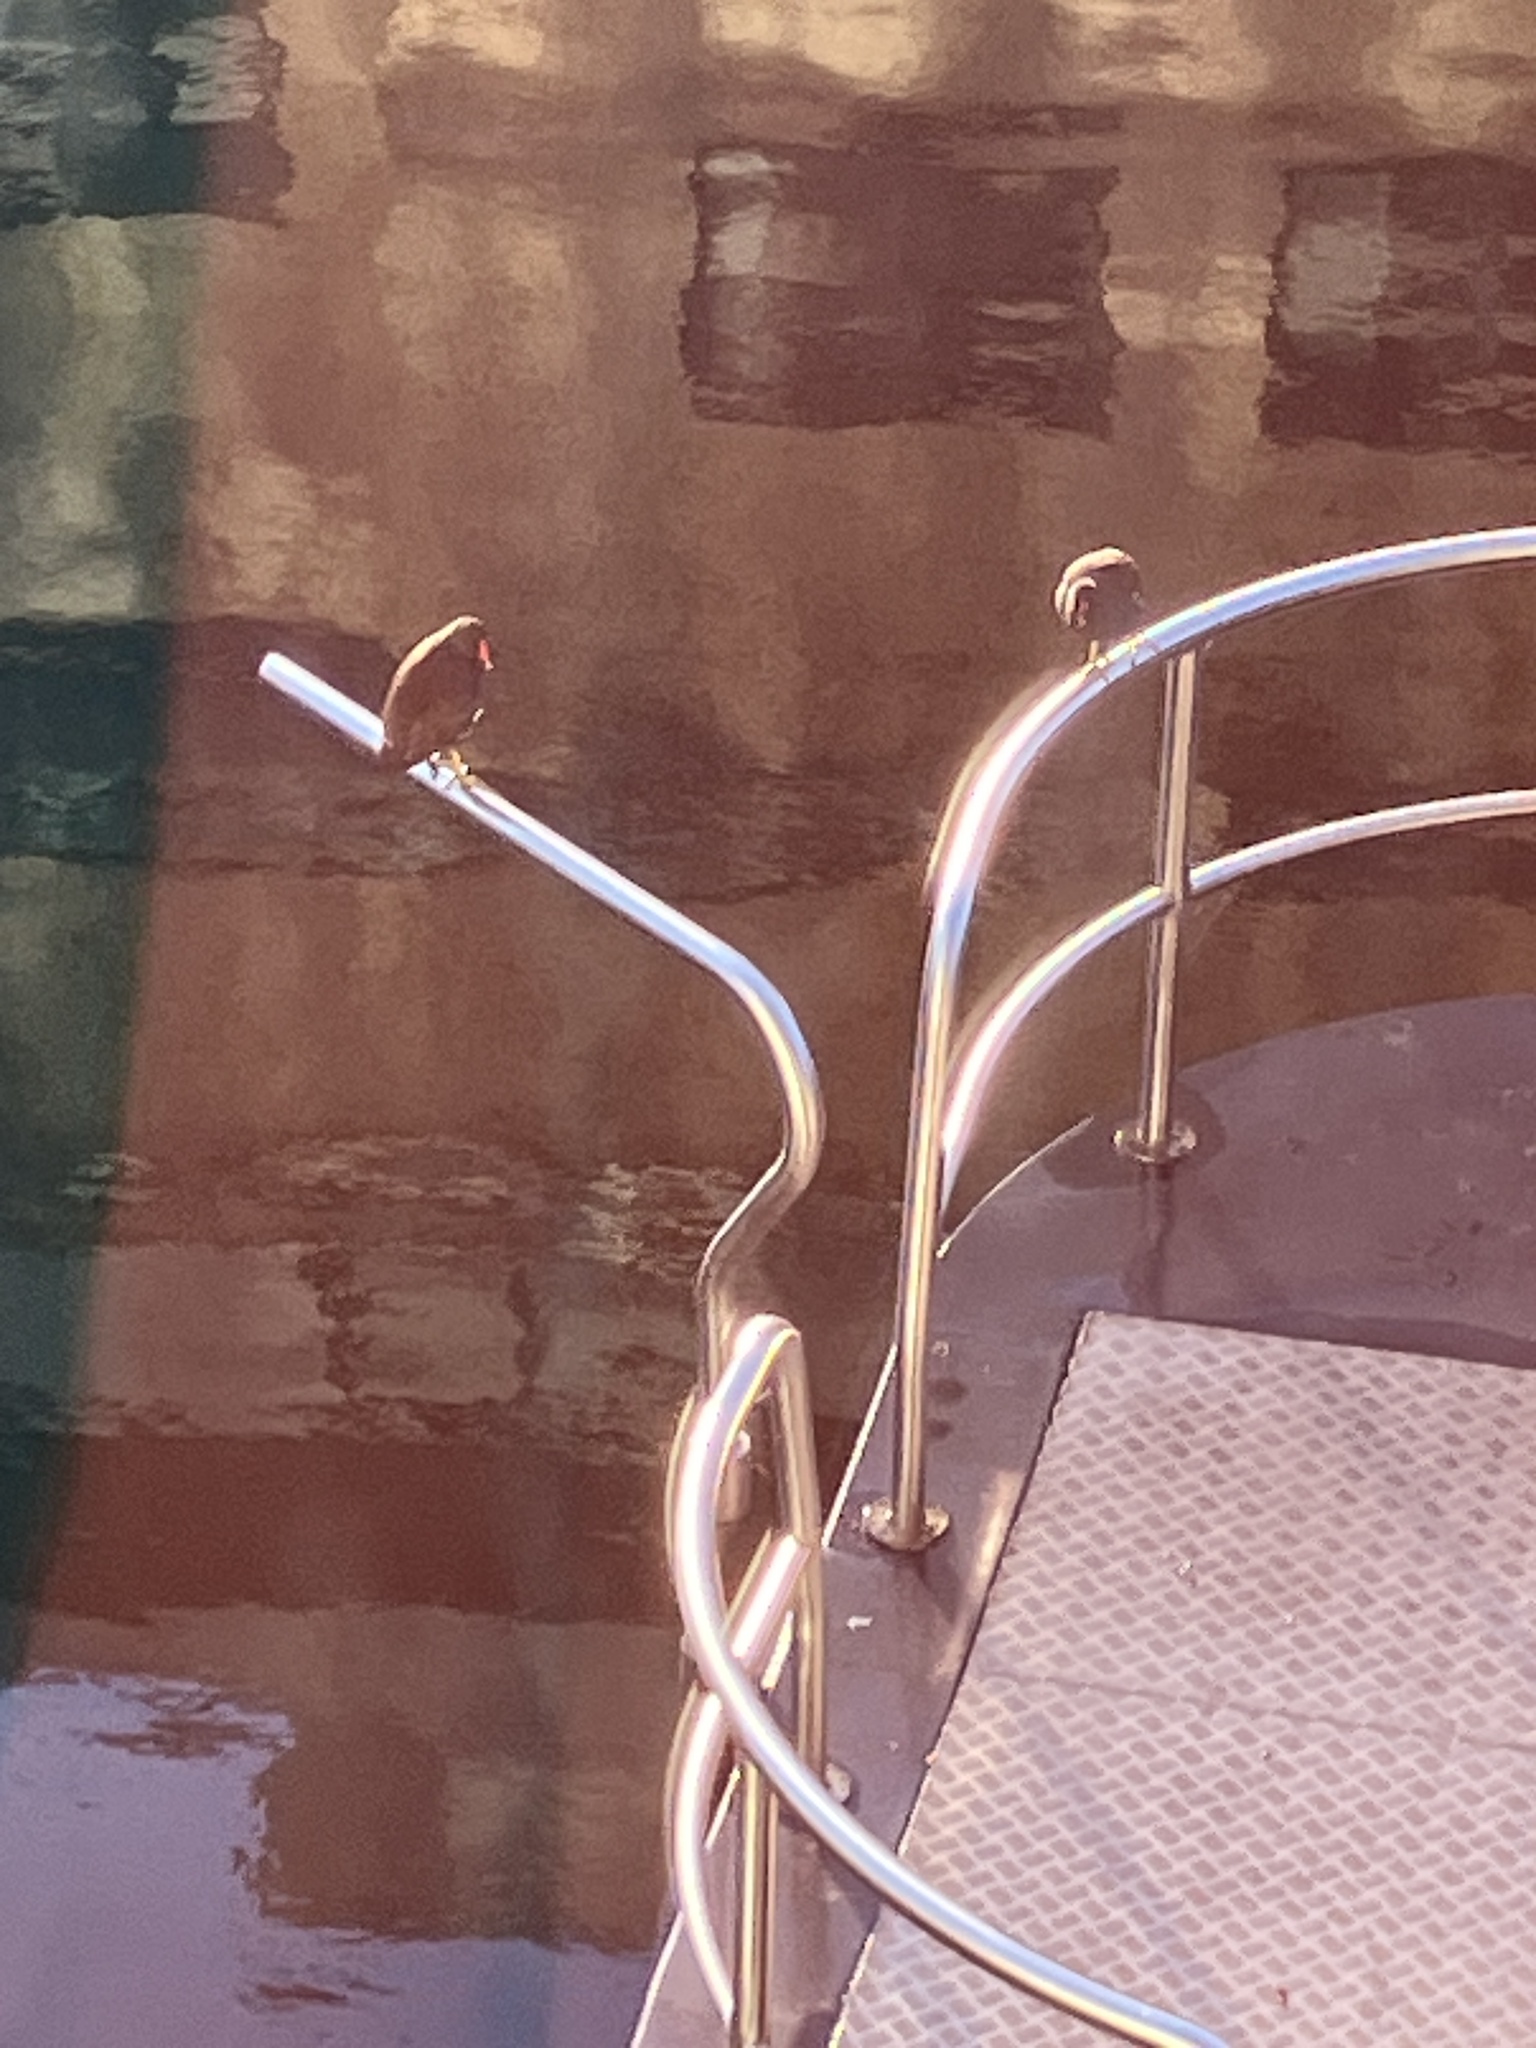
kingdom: Animalia
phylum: Chordata
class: Aves
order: Gruiformes
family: Rallidae
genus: Gallinula
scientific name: Gallinula chloropus
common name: Common moorhen
